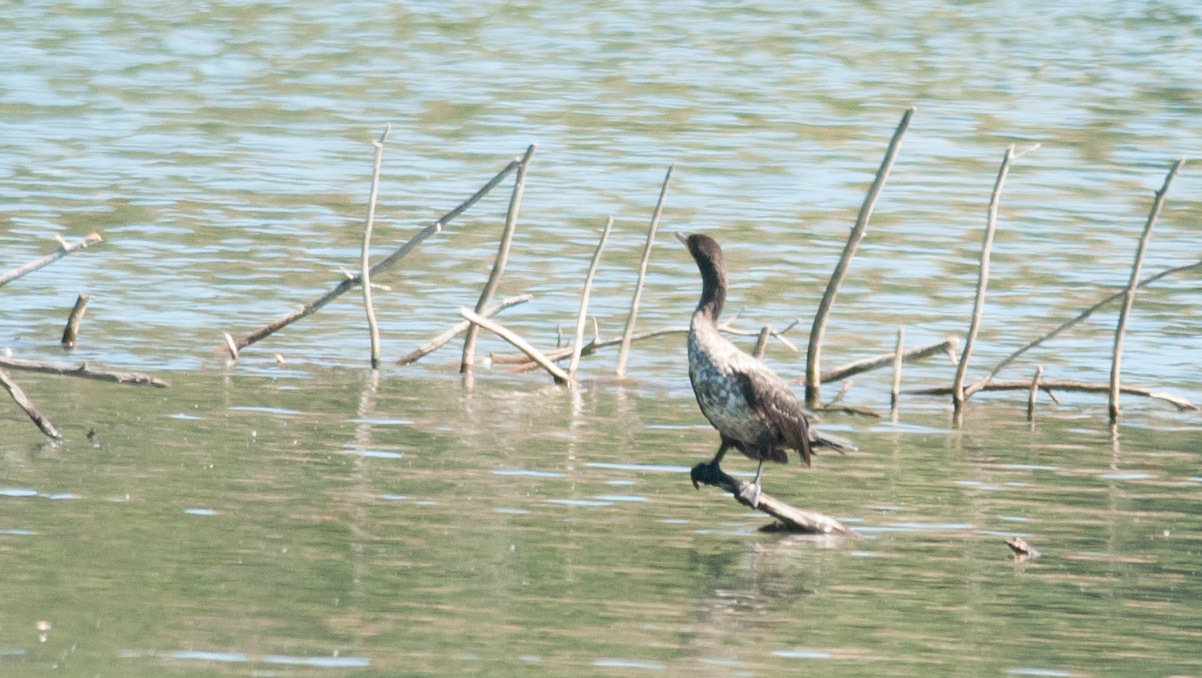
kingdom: Animalia
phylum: Chordata
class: Aves
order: Suliformes
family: Phalacrocoracidae
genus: Phalacrocorax
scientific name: Phalacrocorax auritus
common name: Double-crested cormorant
